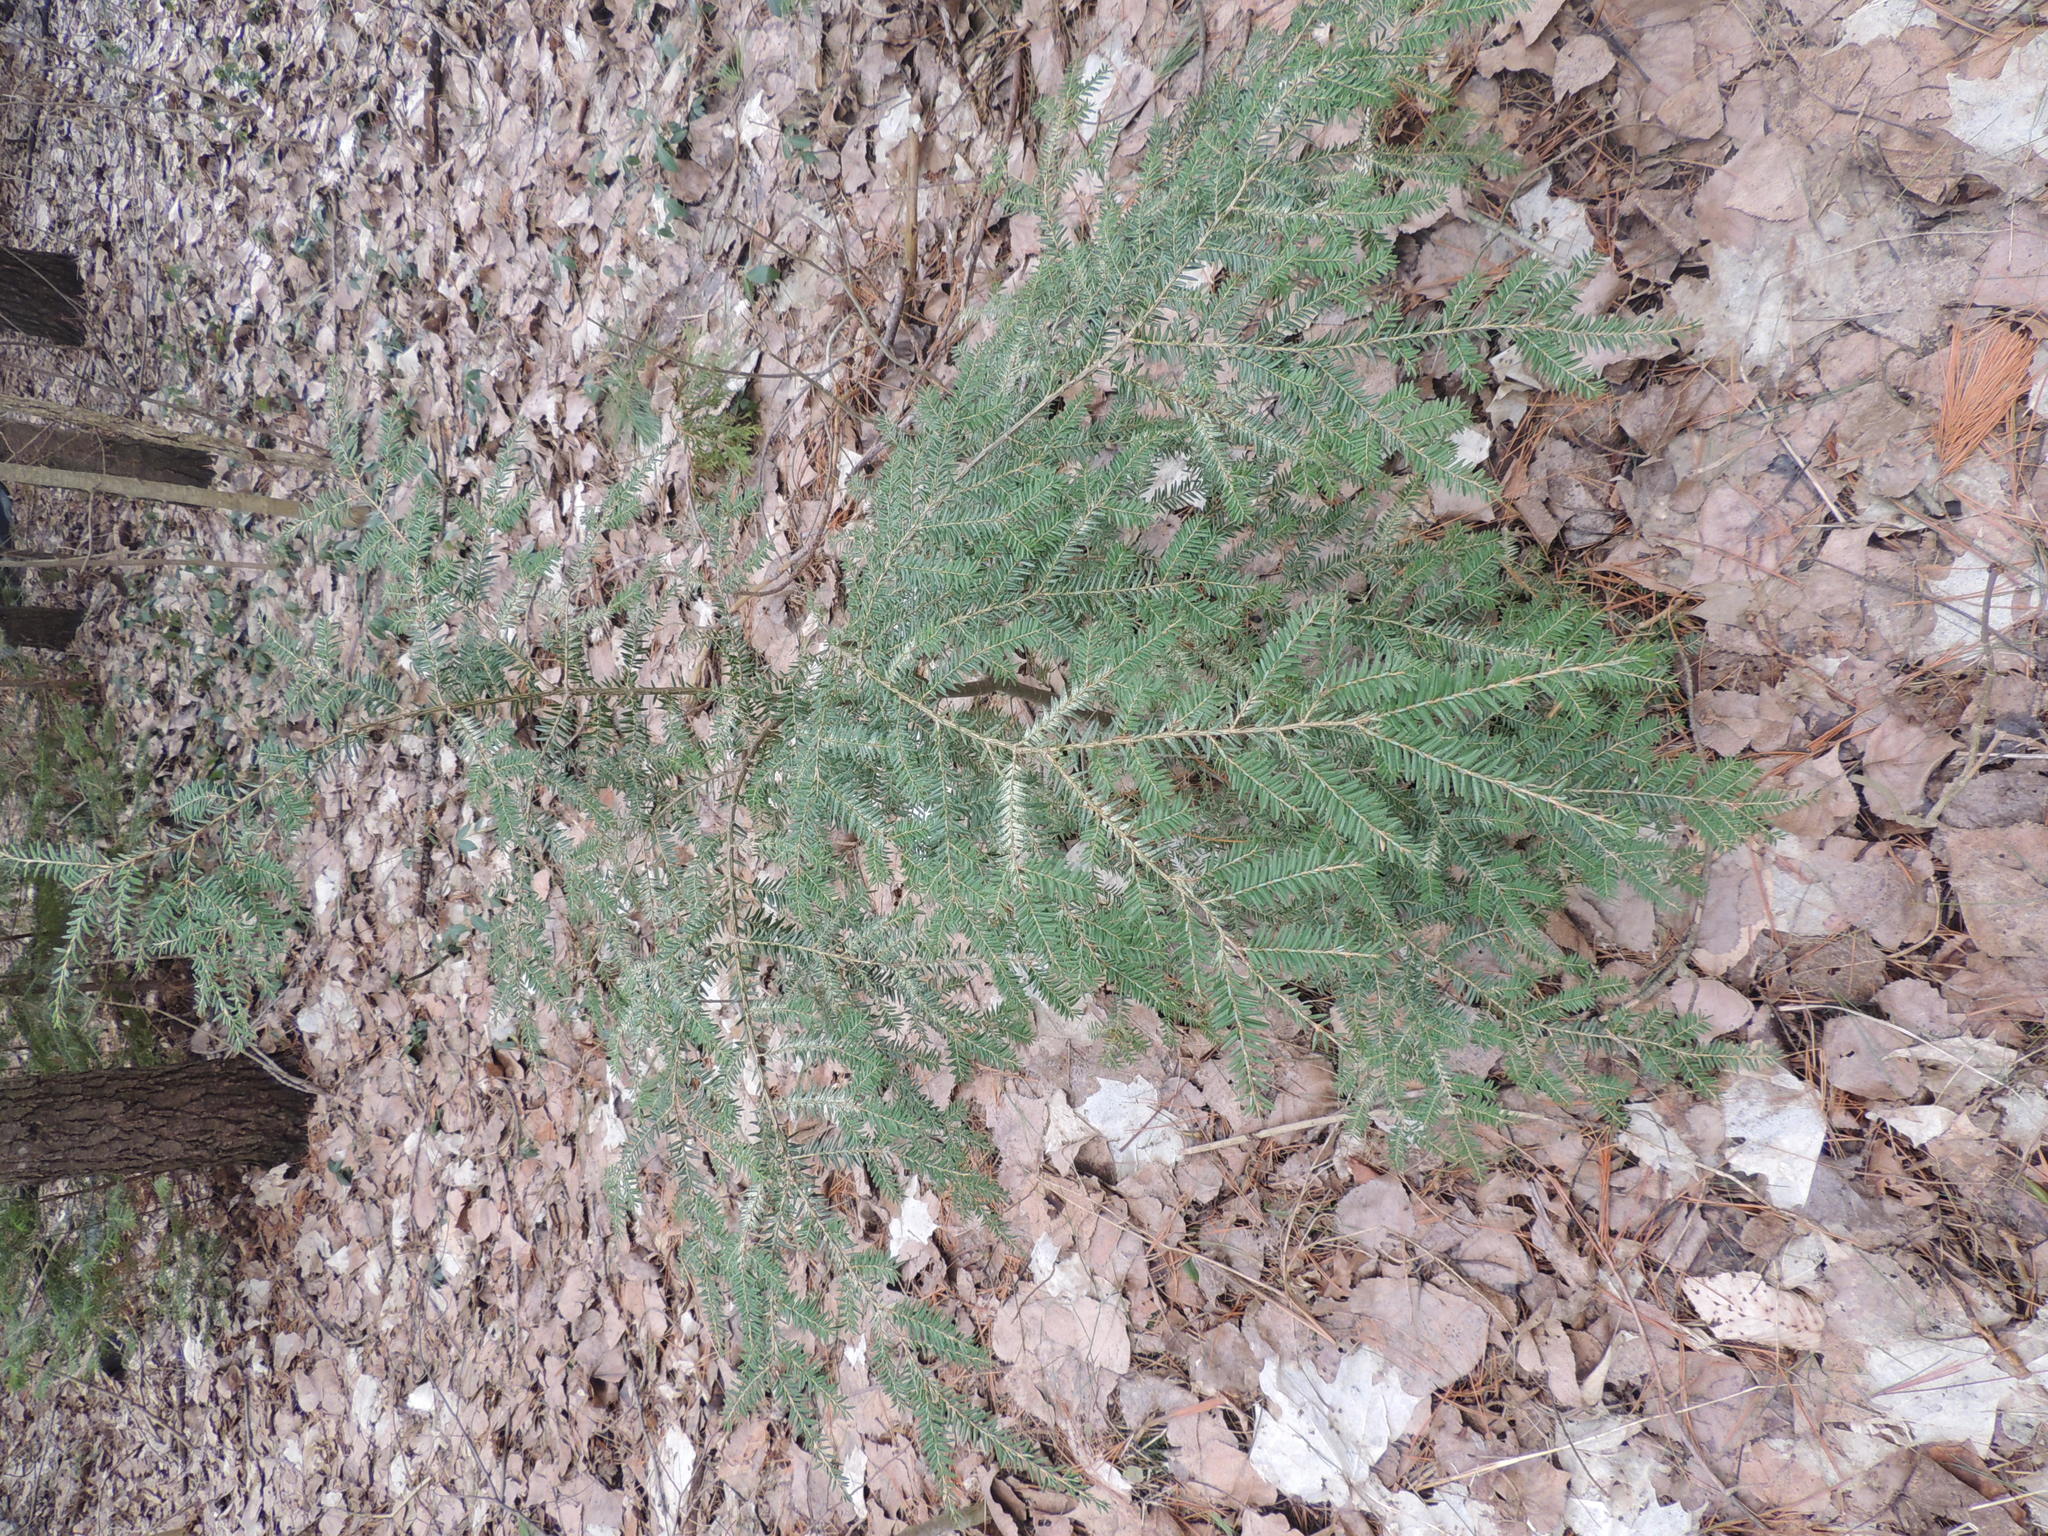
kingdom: Plantae
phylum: Tracheophyta
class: Pinopsida
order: Pinales
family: Pinaceae
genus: Tsuga
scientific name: Tsuga canadensis
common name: Eastern hemlock
